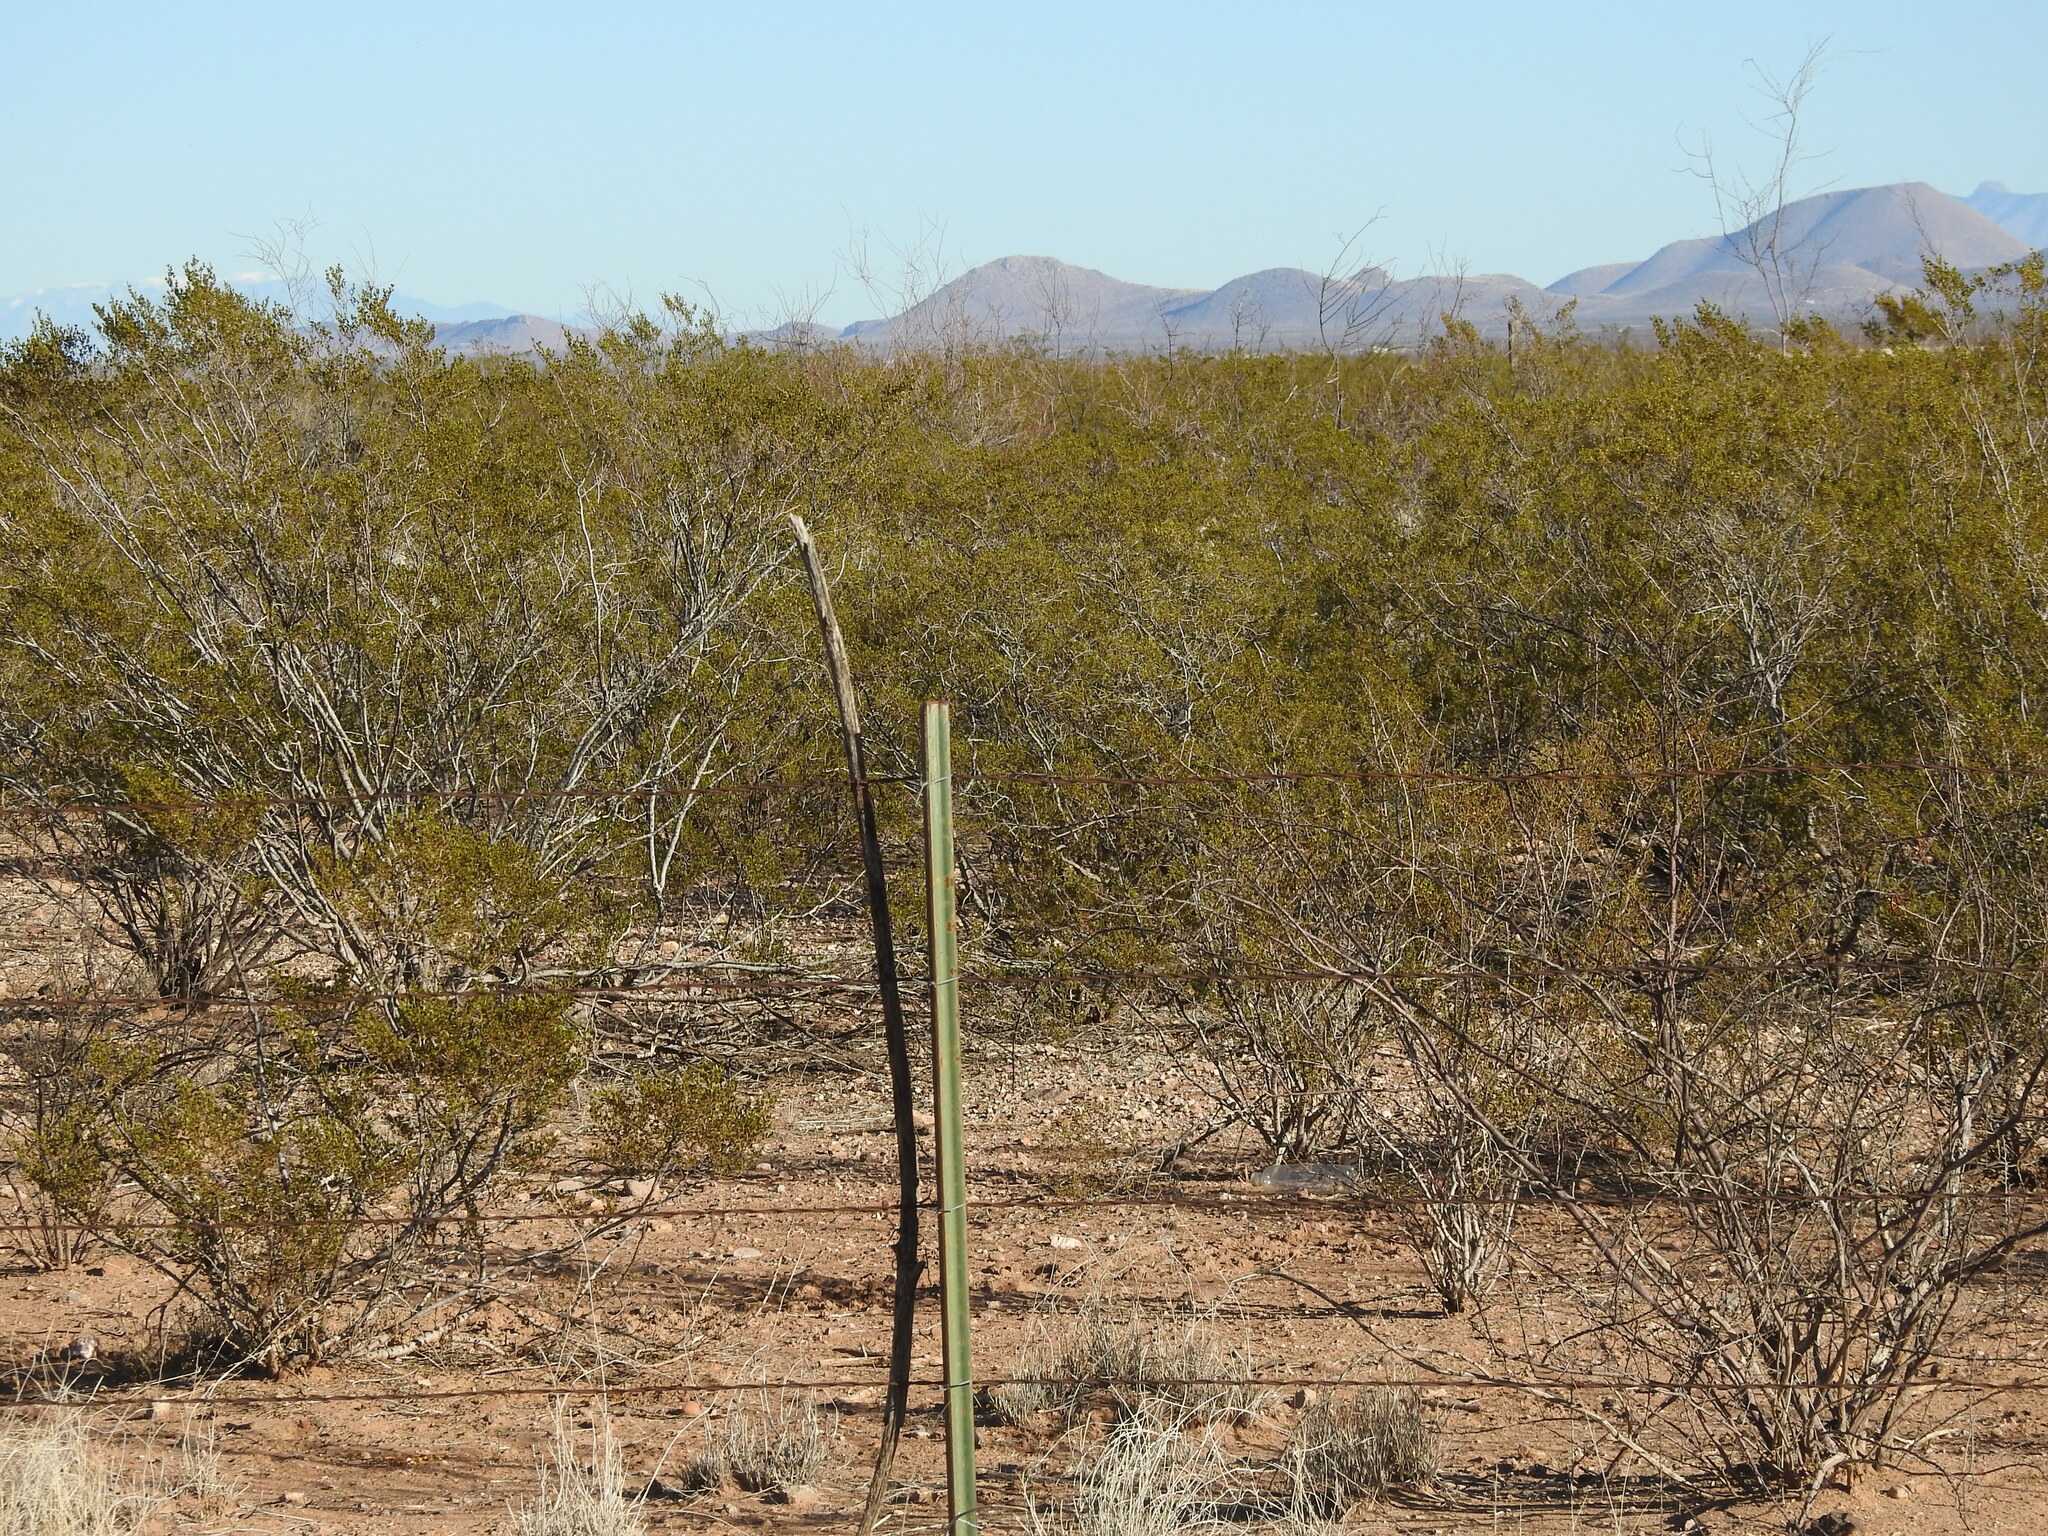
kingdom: Plantae
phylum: Tracheophyta
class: Magnoliopsida
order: Zygophyllales
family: Zygophyllaceae
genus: Larrea
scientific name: Larrea tridentata
